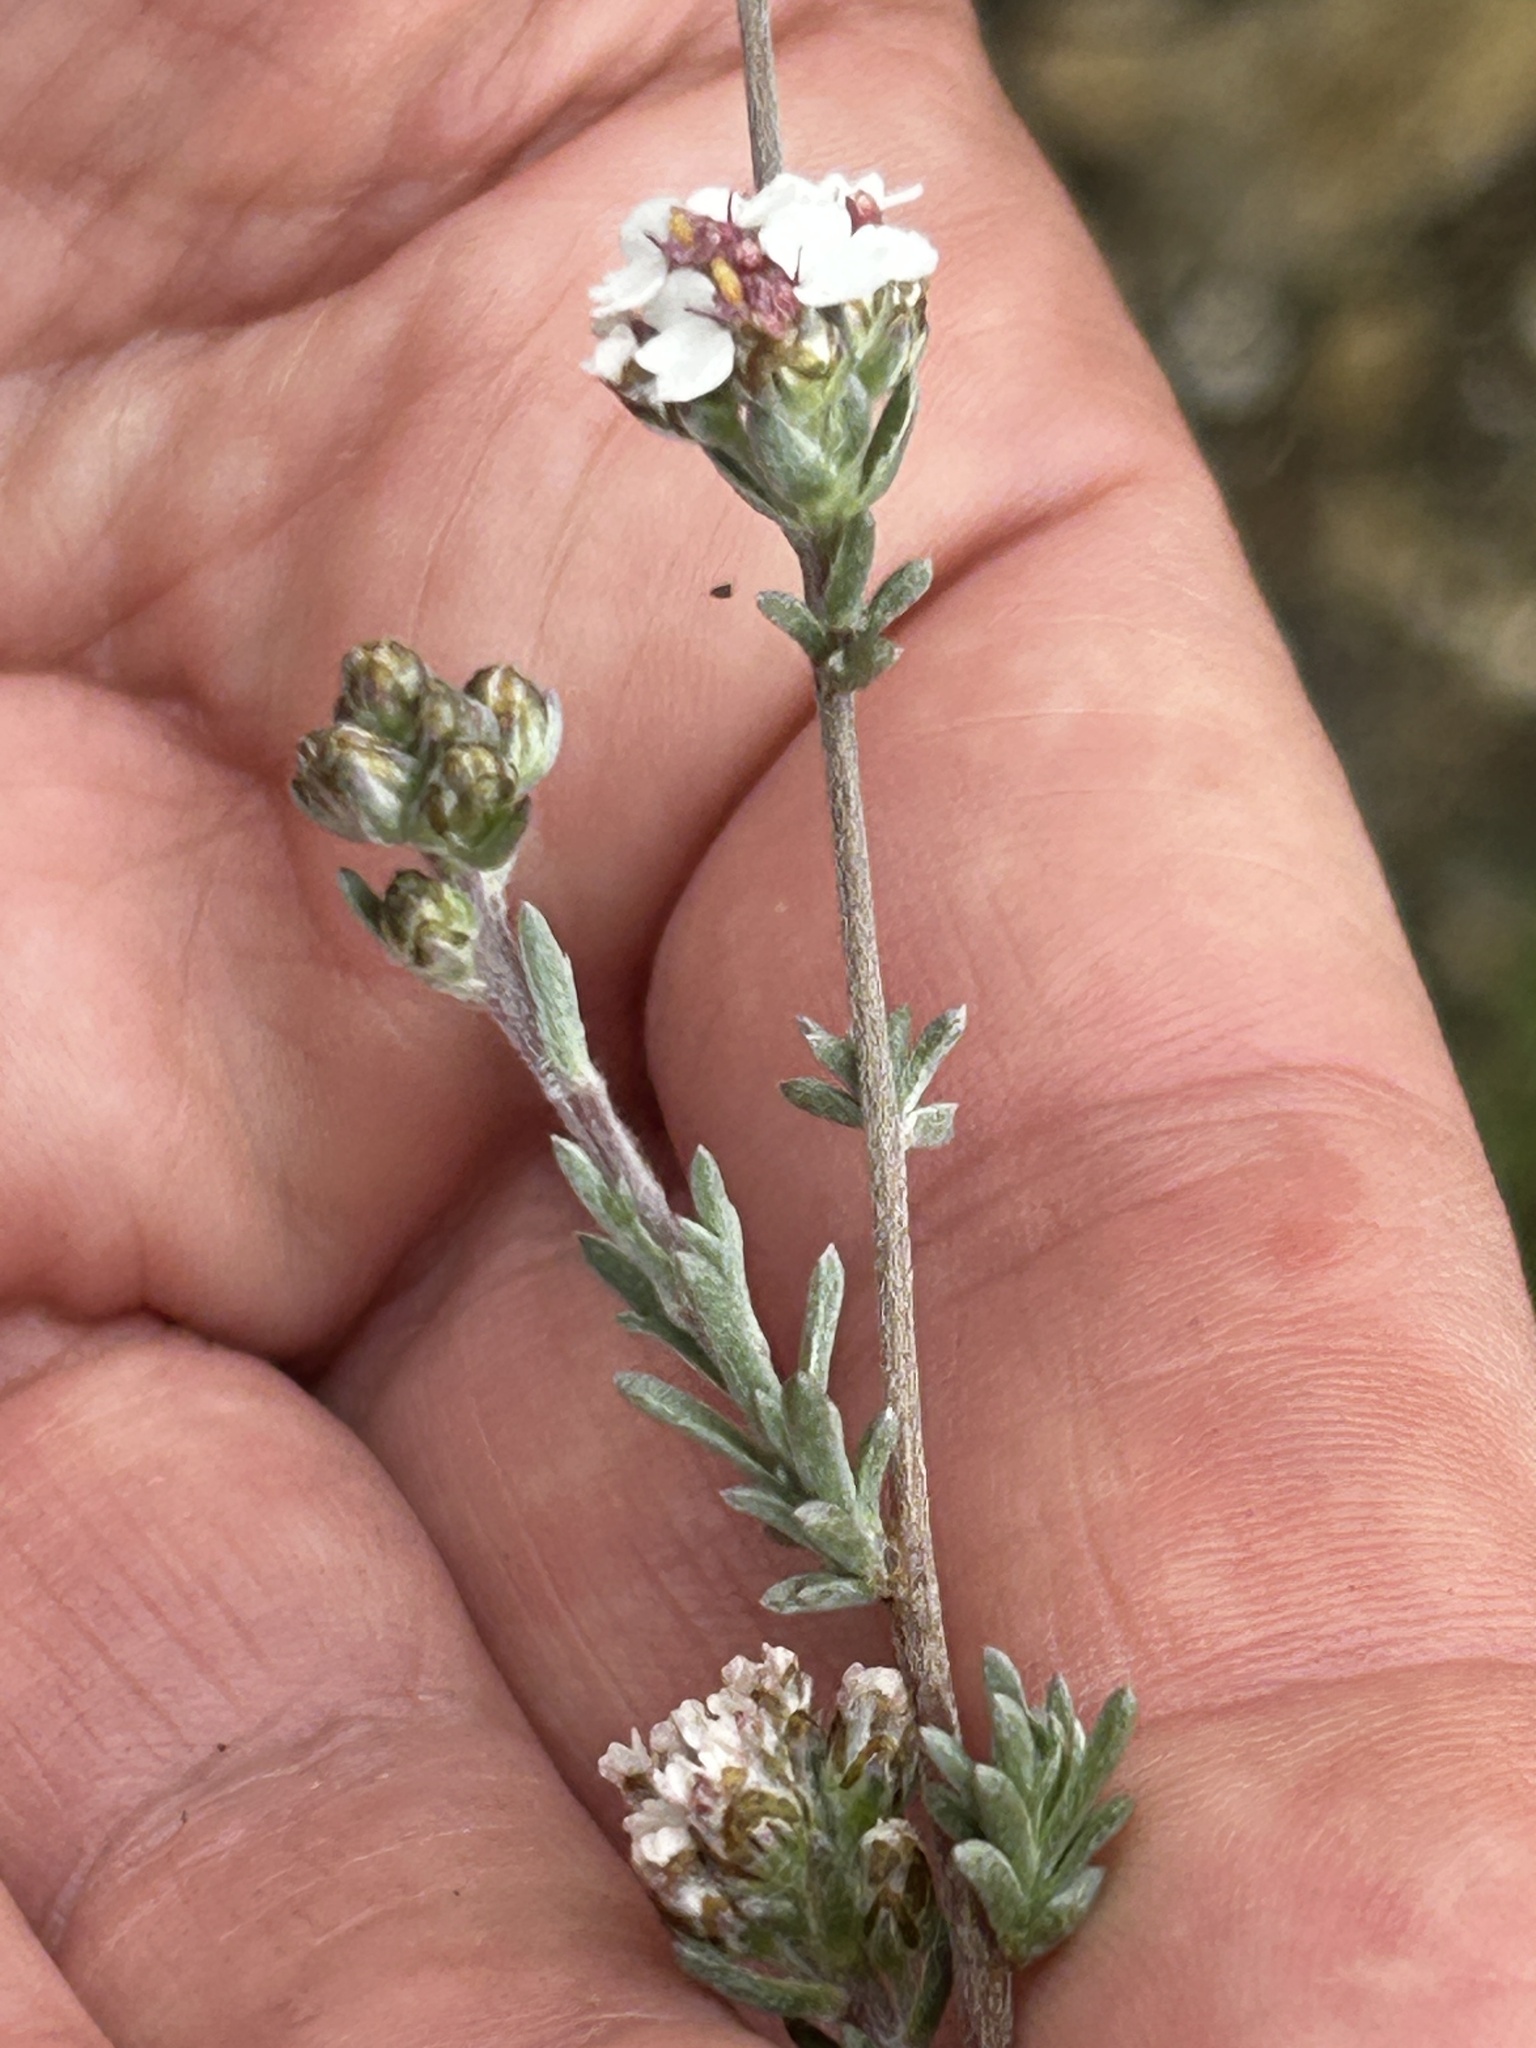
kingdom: Plantae
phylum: Tracheophyta
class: Magnoliopsida
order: Asterales
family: Asteraceae
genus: Eriocephalus
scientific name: Eriocephalus africanus
